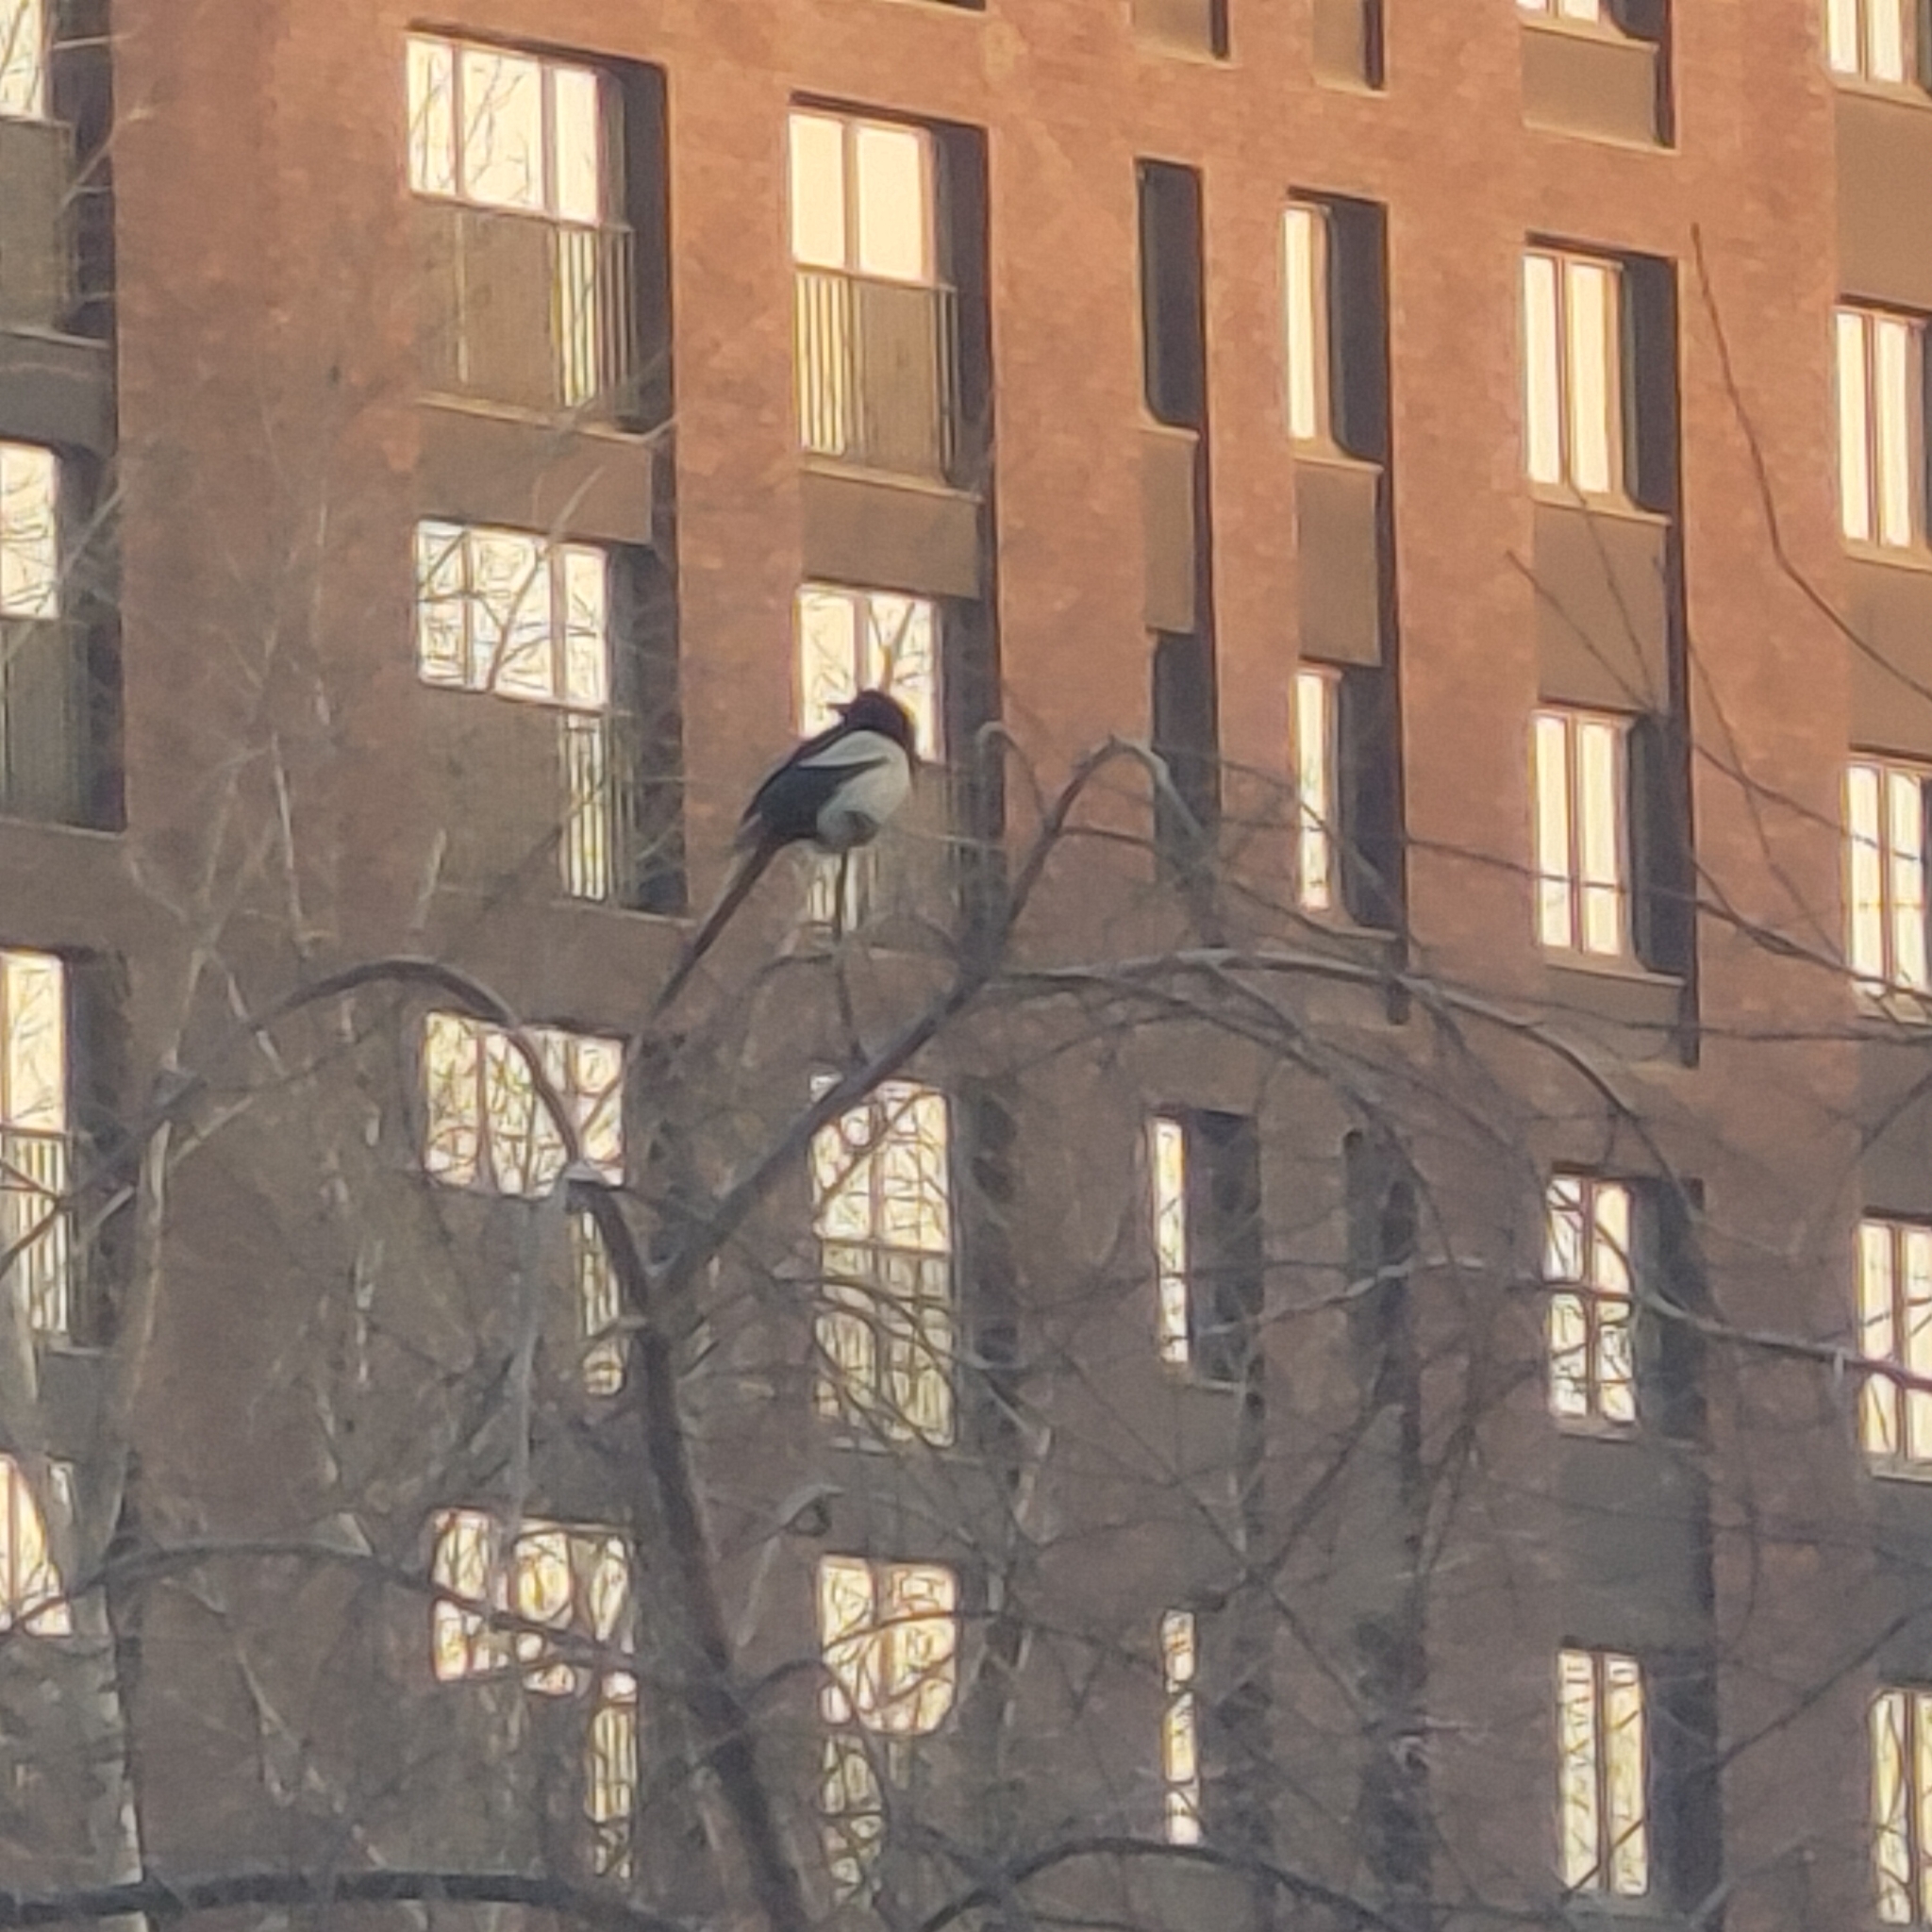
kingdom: Animalia
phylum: Chordata
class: Aves
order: Passeriformes
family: Corvidae
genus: Pica
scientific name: Pica pica
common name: Eurasian magpie
